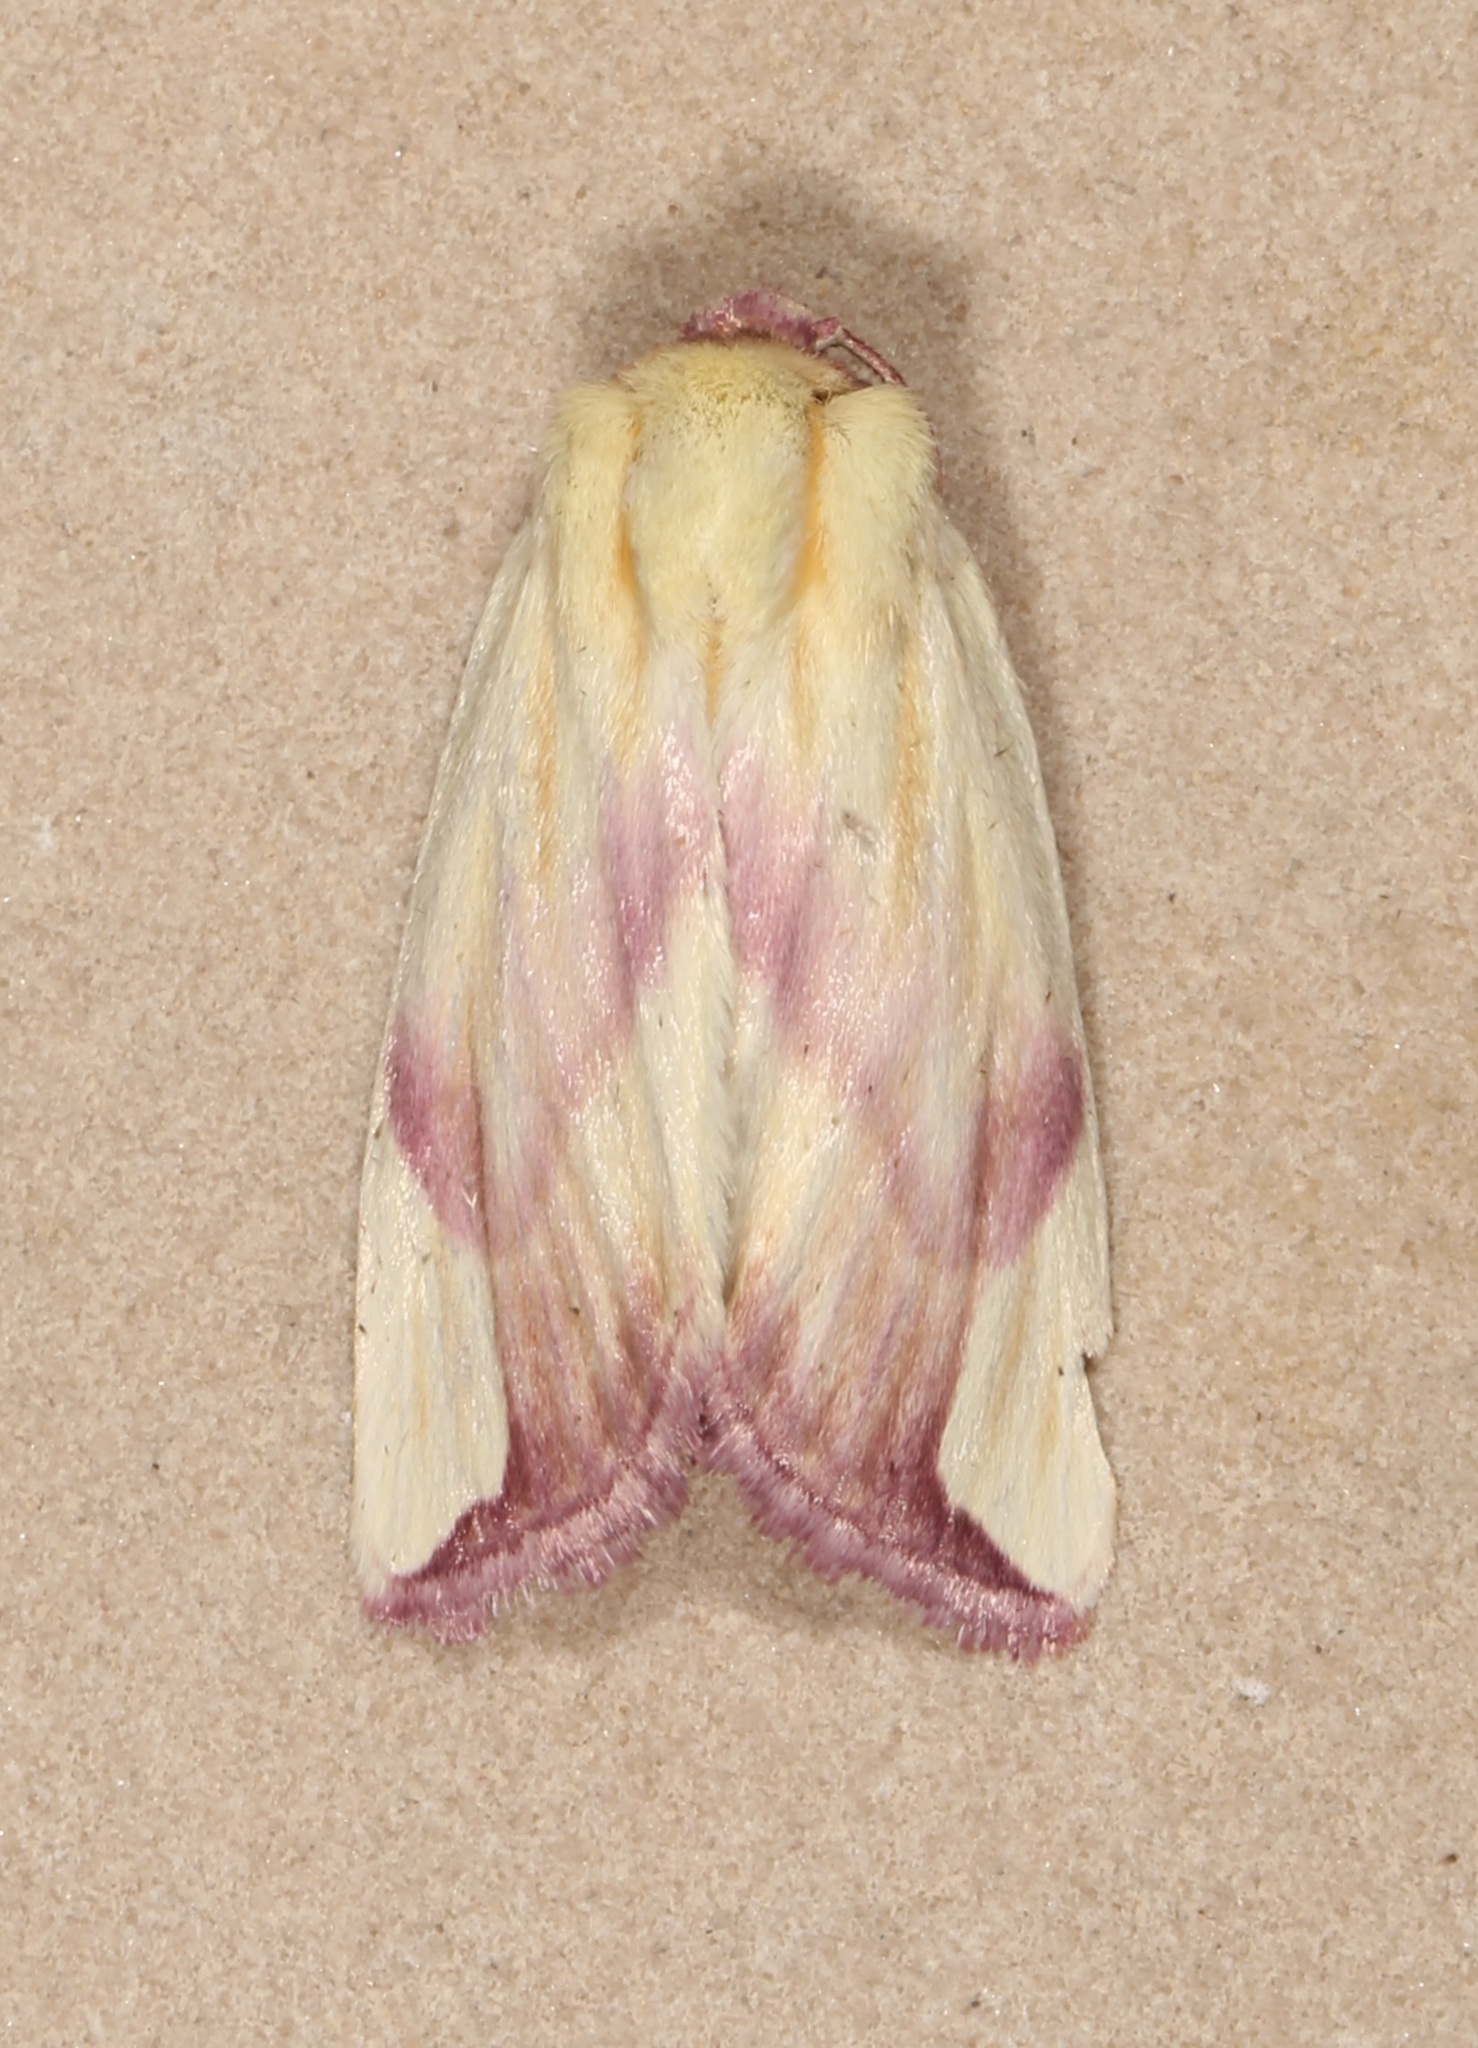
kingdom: Animalia
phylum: Arthropoda
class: Insecta
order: Lepidoptera
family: Noctuidae
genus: Thurberiphaga
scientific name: Thurberiphaga diffusa
